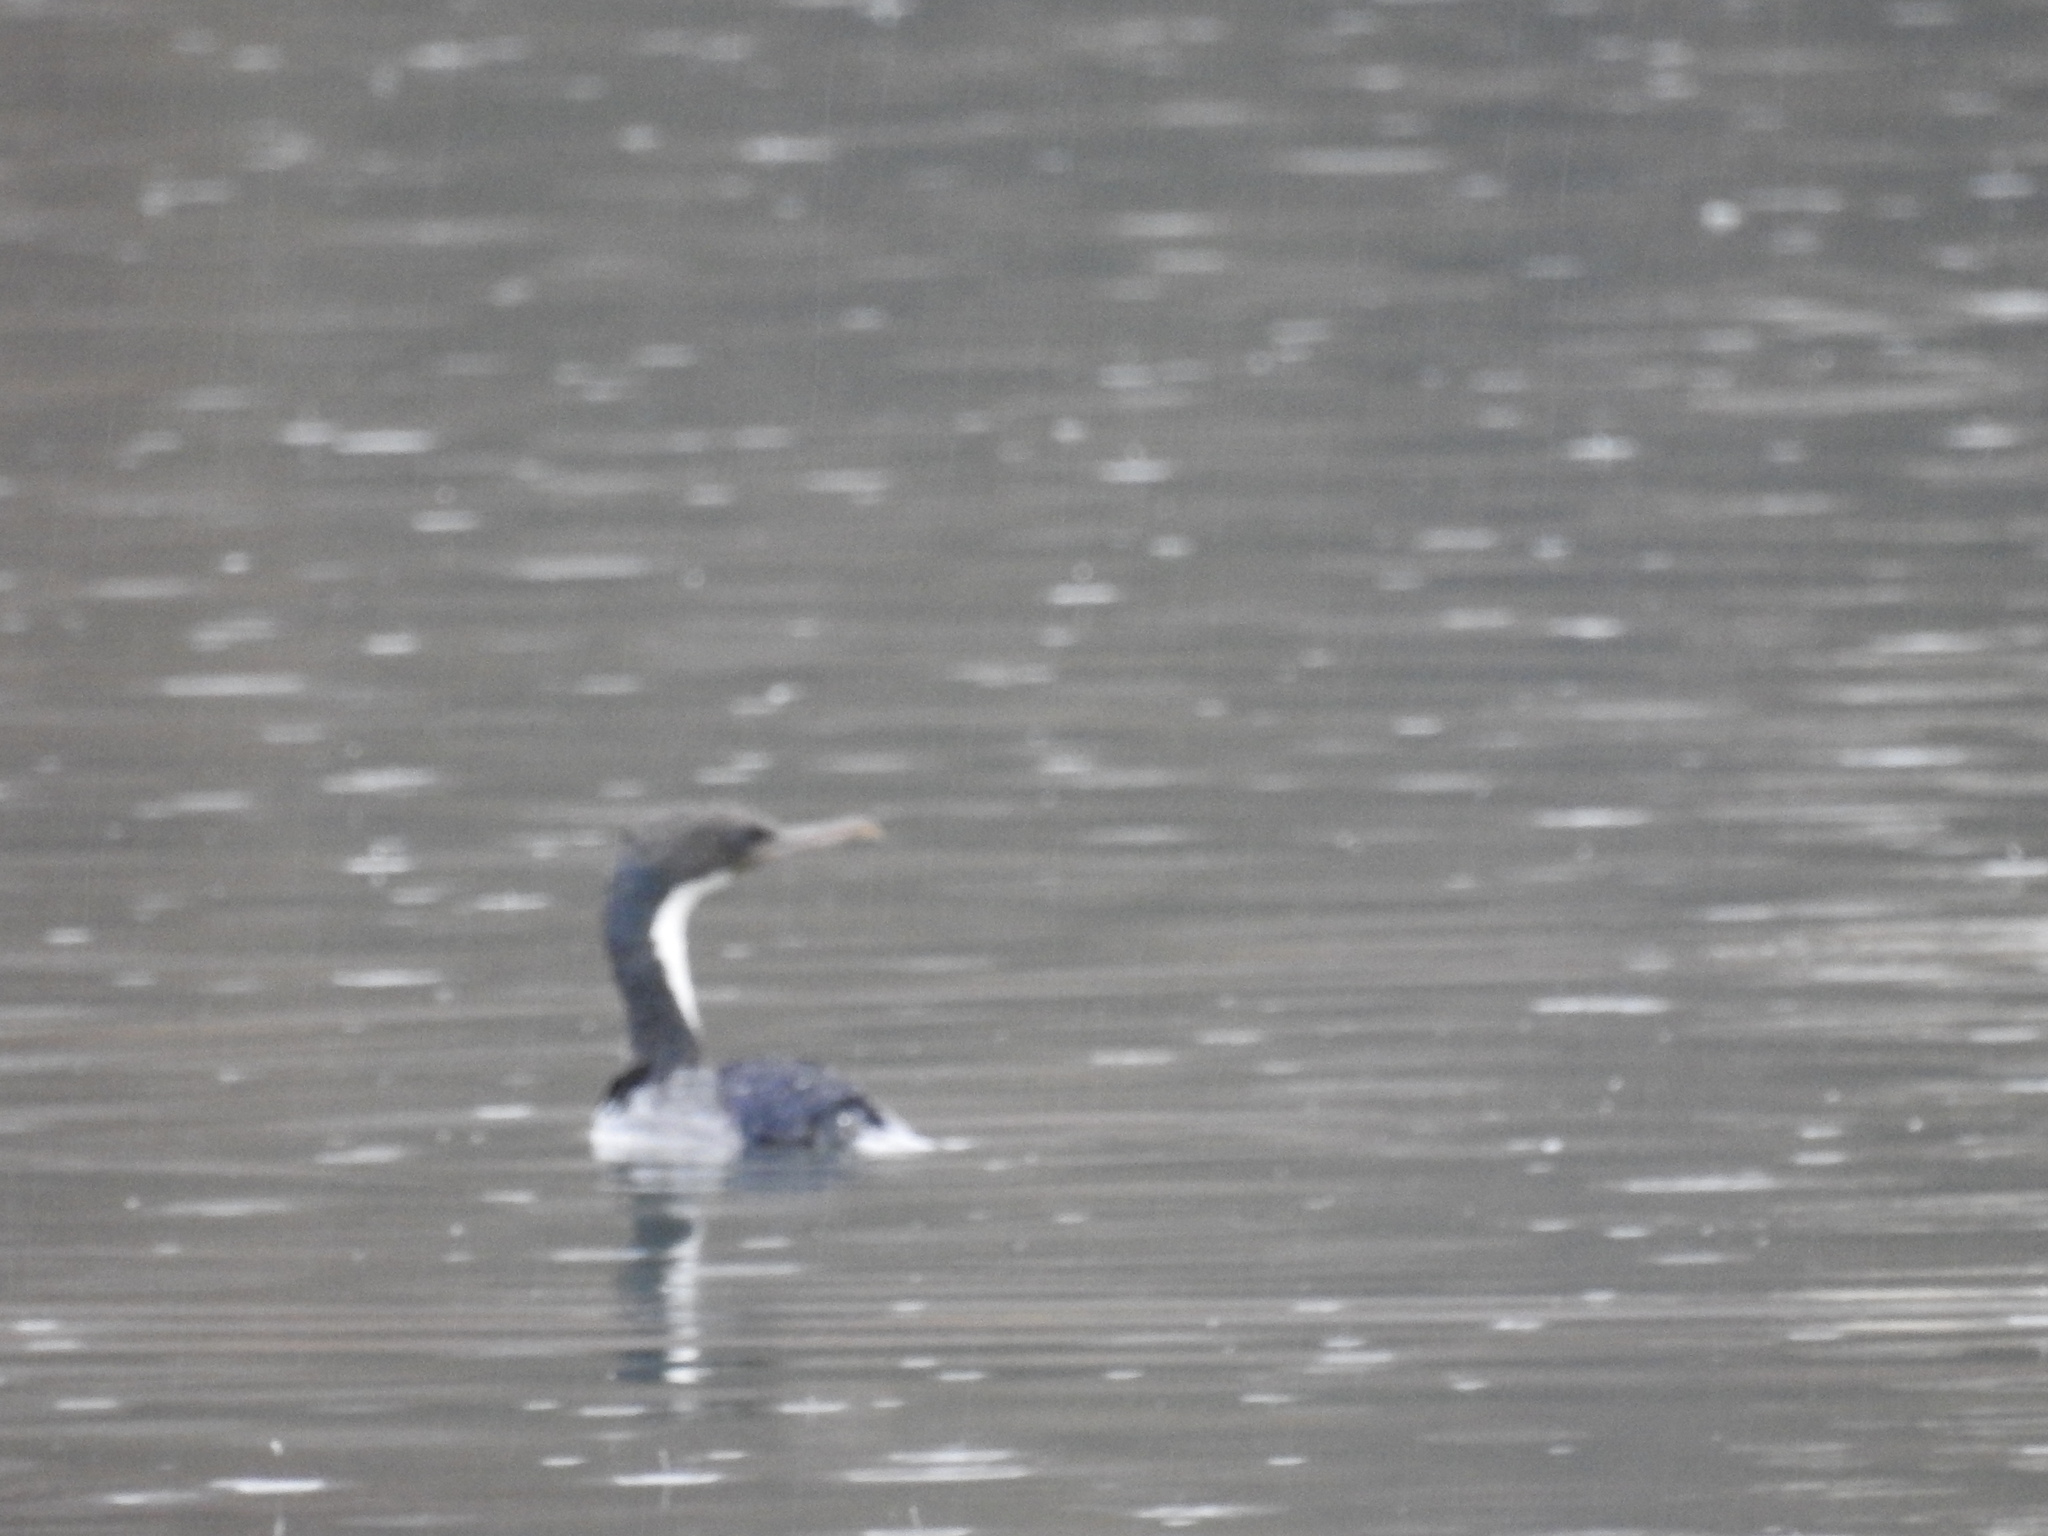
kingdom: Animalia
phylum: Chordata
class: Aves
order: Suliformes
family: Phalacrocoracidae
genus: Leucocarbo
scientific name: Leucocarbo atriceps
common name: Imperial shag
